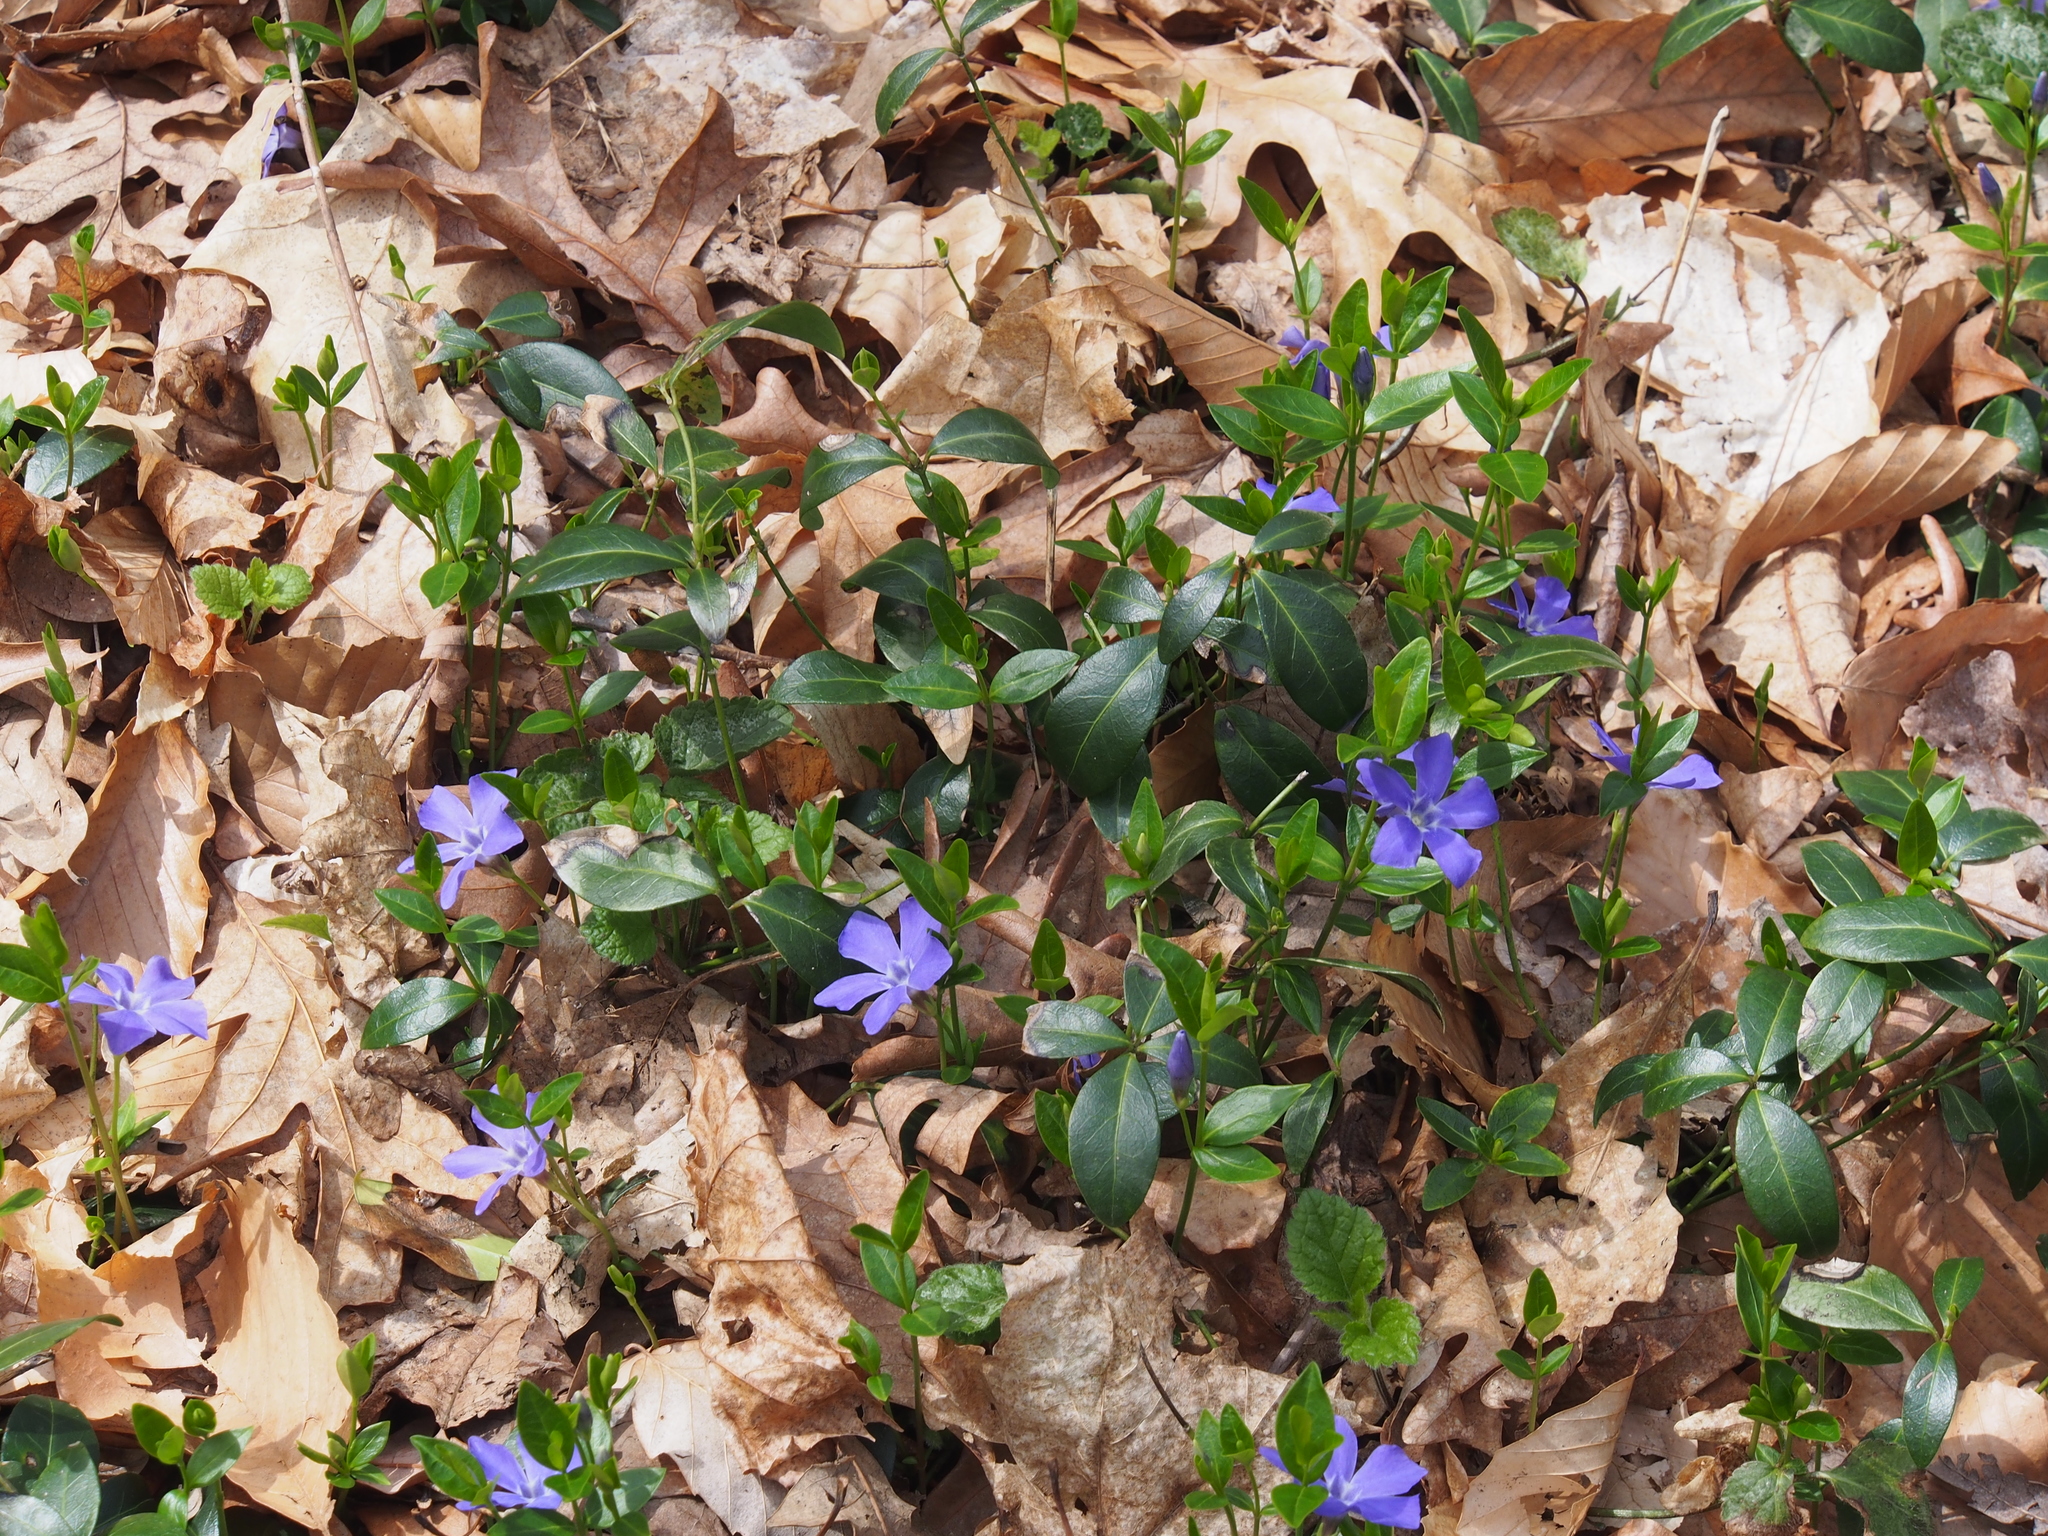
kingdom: Plantae
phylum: Tracheophyta
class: Magnoliopsida
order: Gentianales
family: Apocynaceae
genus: Vinca
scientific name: Vinca minor
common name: Lesser periwinkle
